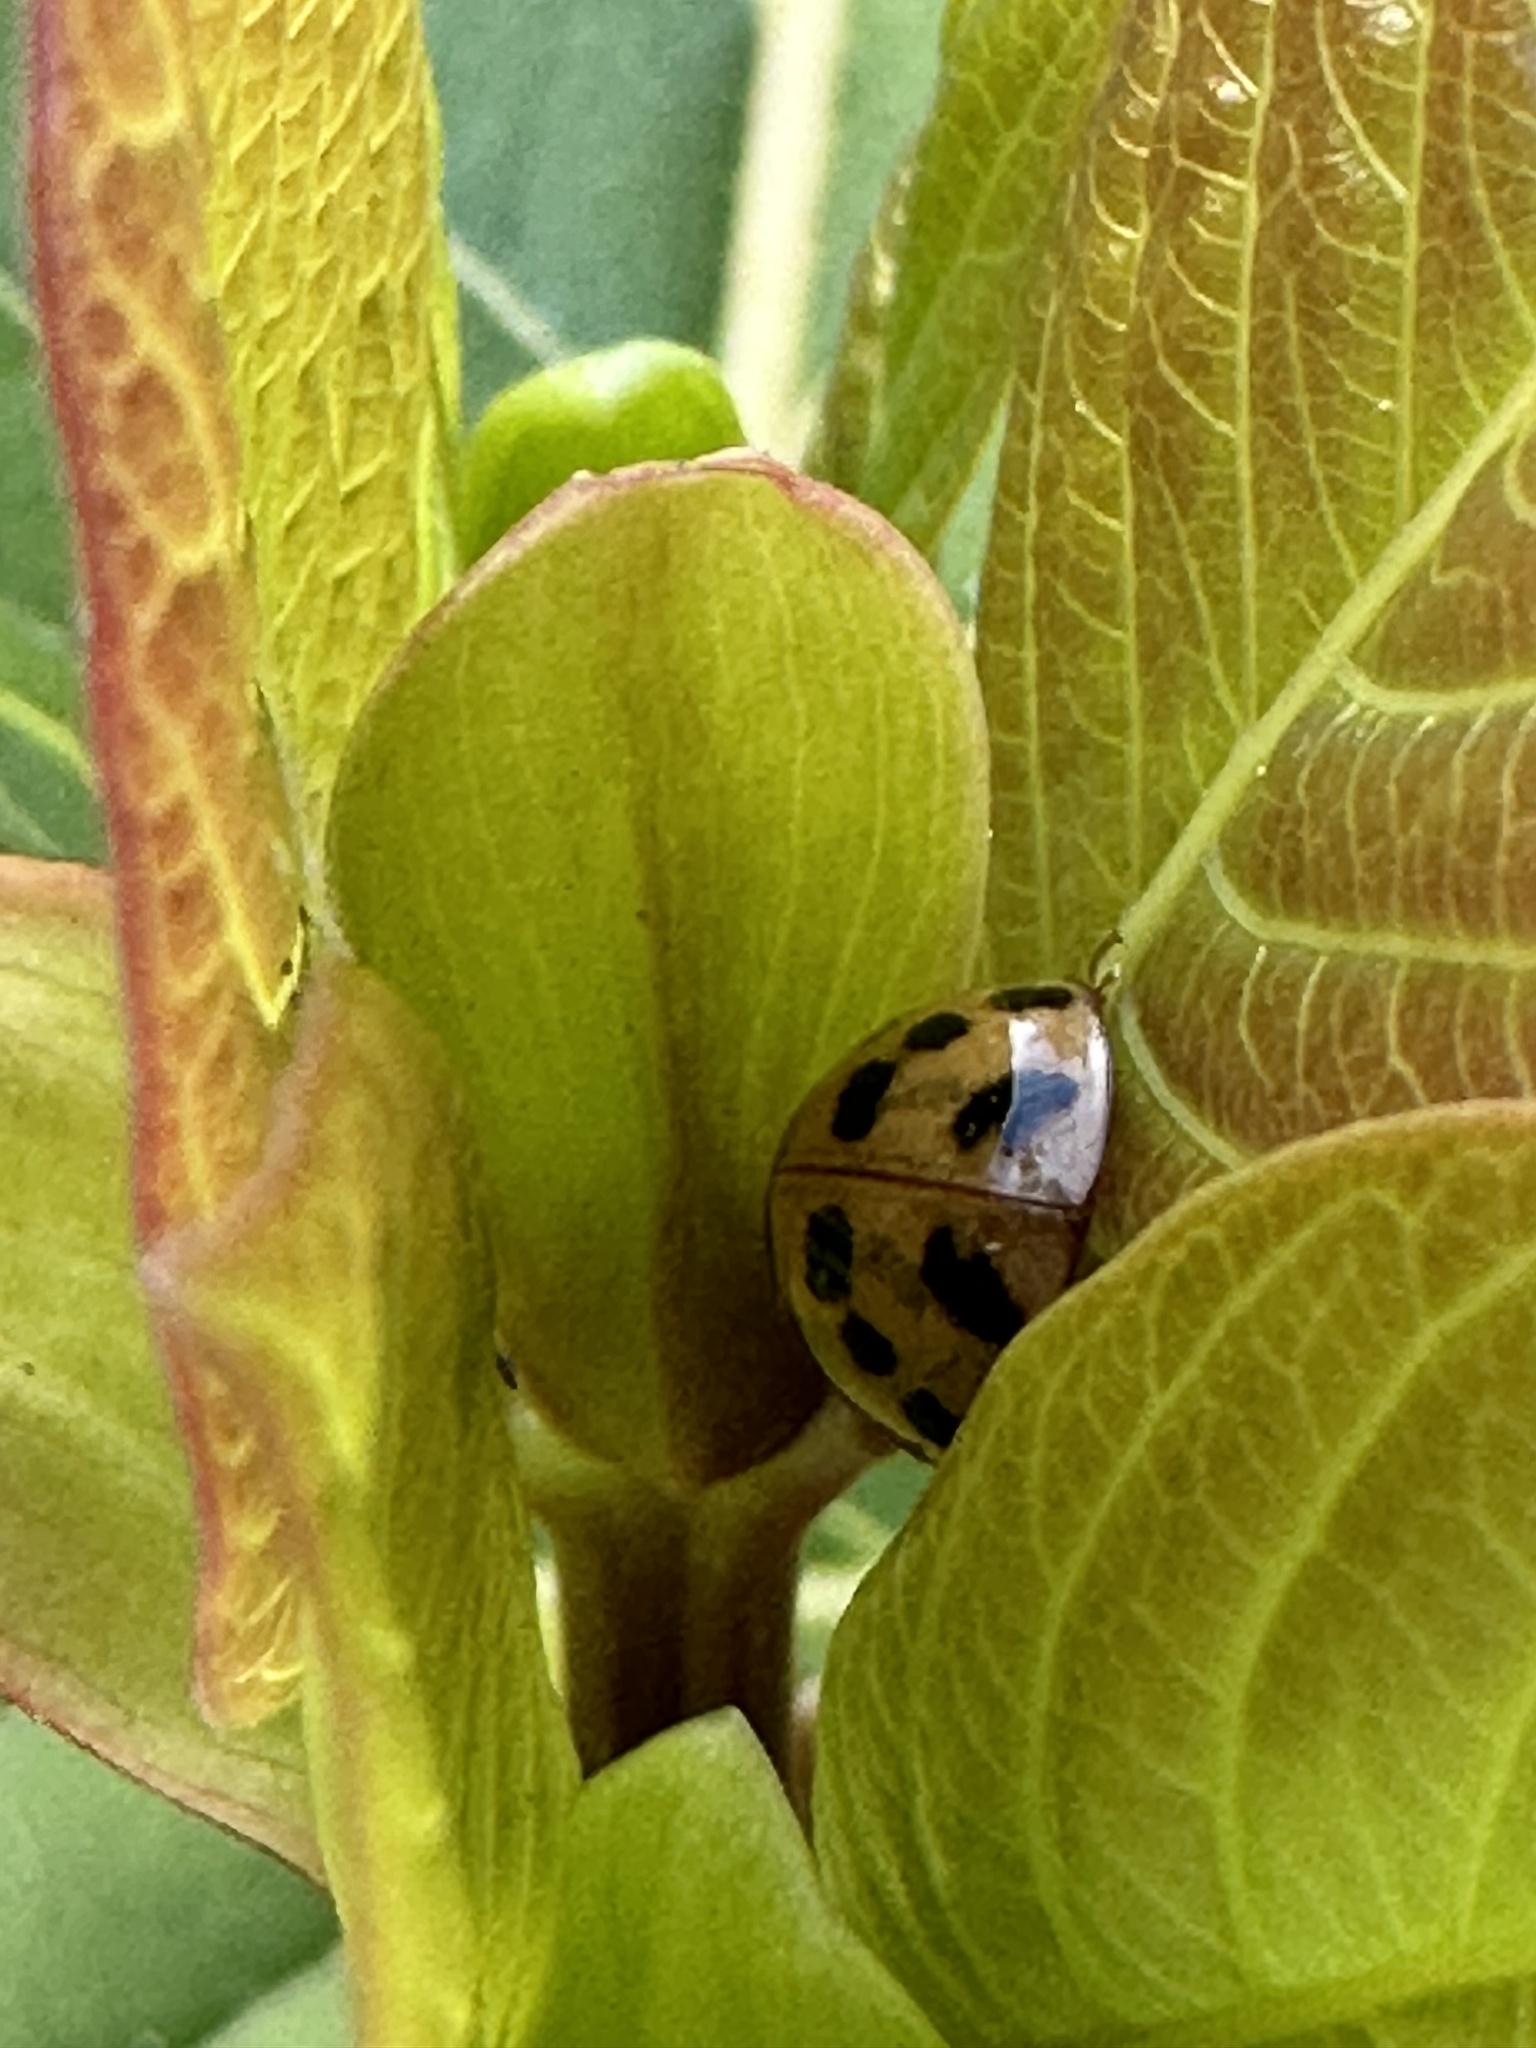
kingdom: Animalia
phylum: Arthropoda
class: Insecta
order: Coleoptera
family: Coccinellidae
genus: Harmonia
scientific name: Harmonia axyridis
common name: Harlequin ladybird
